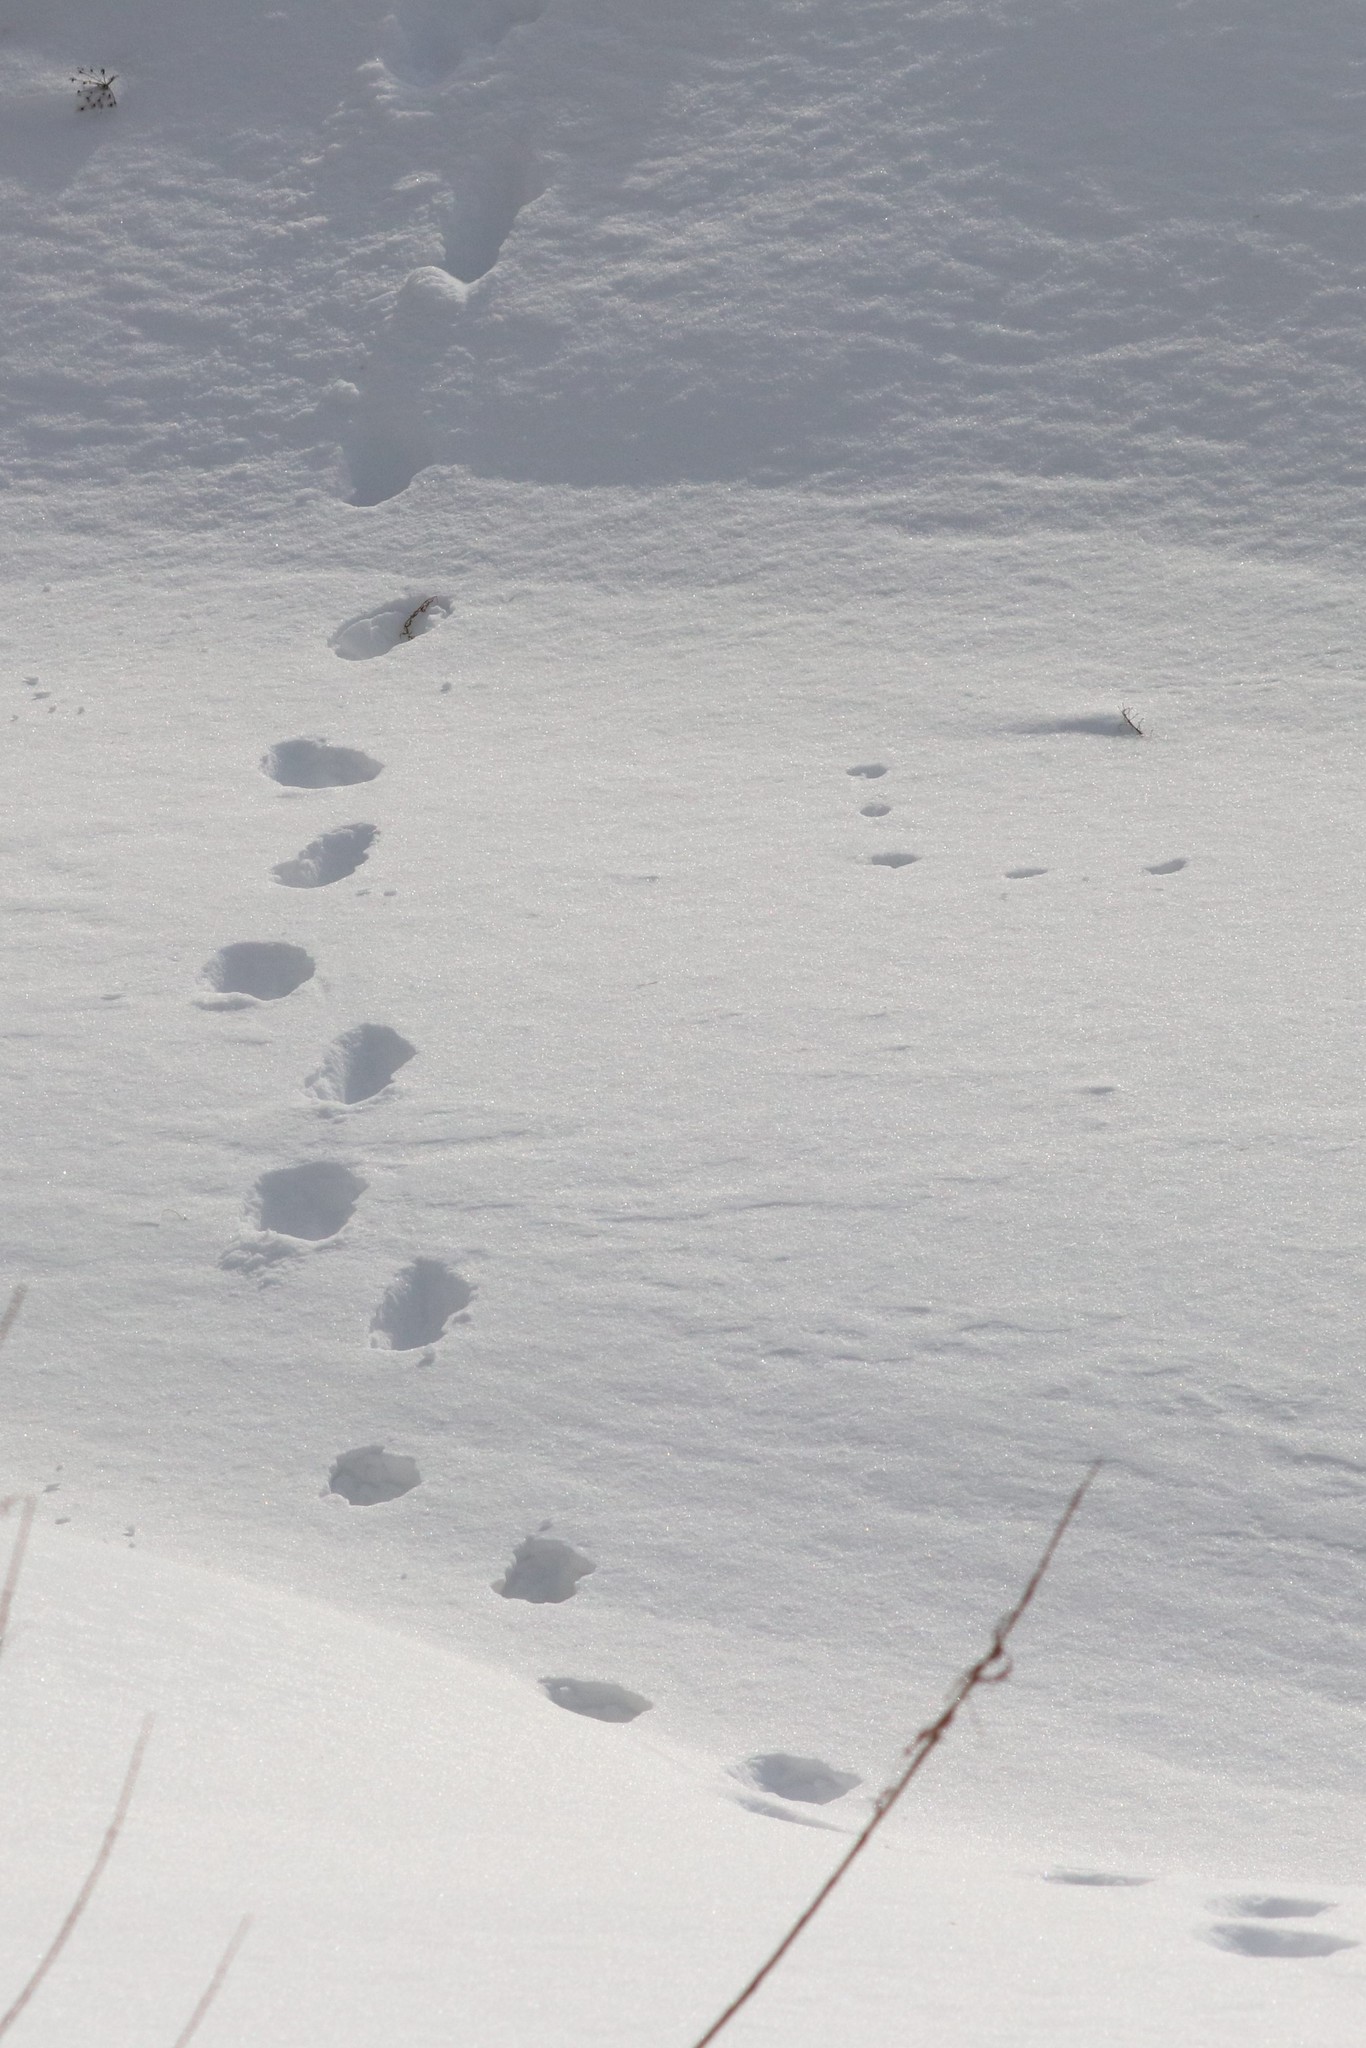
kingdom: Animalia
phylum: Chordata
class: Mammalia
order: Carnivora
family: Felidae
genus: Lynx
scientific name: Lynx lynx
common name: Eurasian lynx
